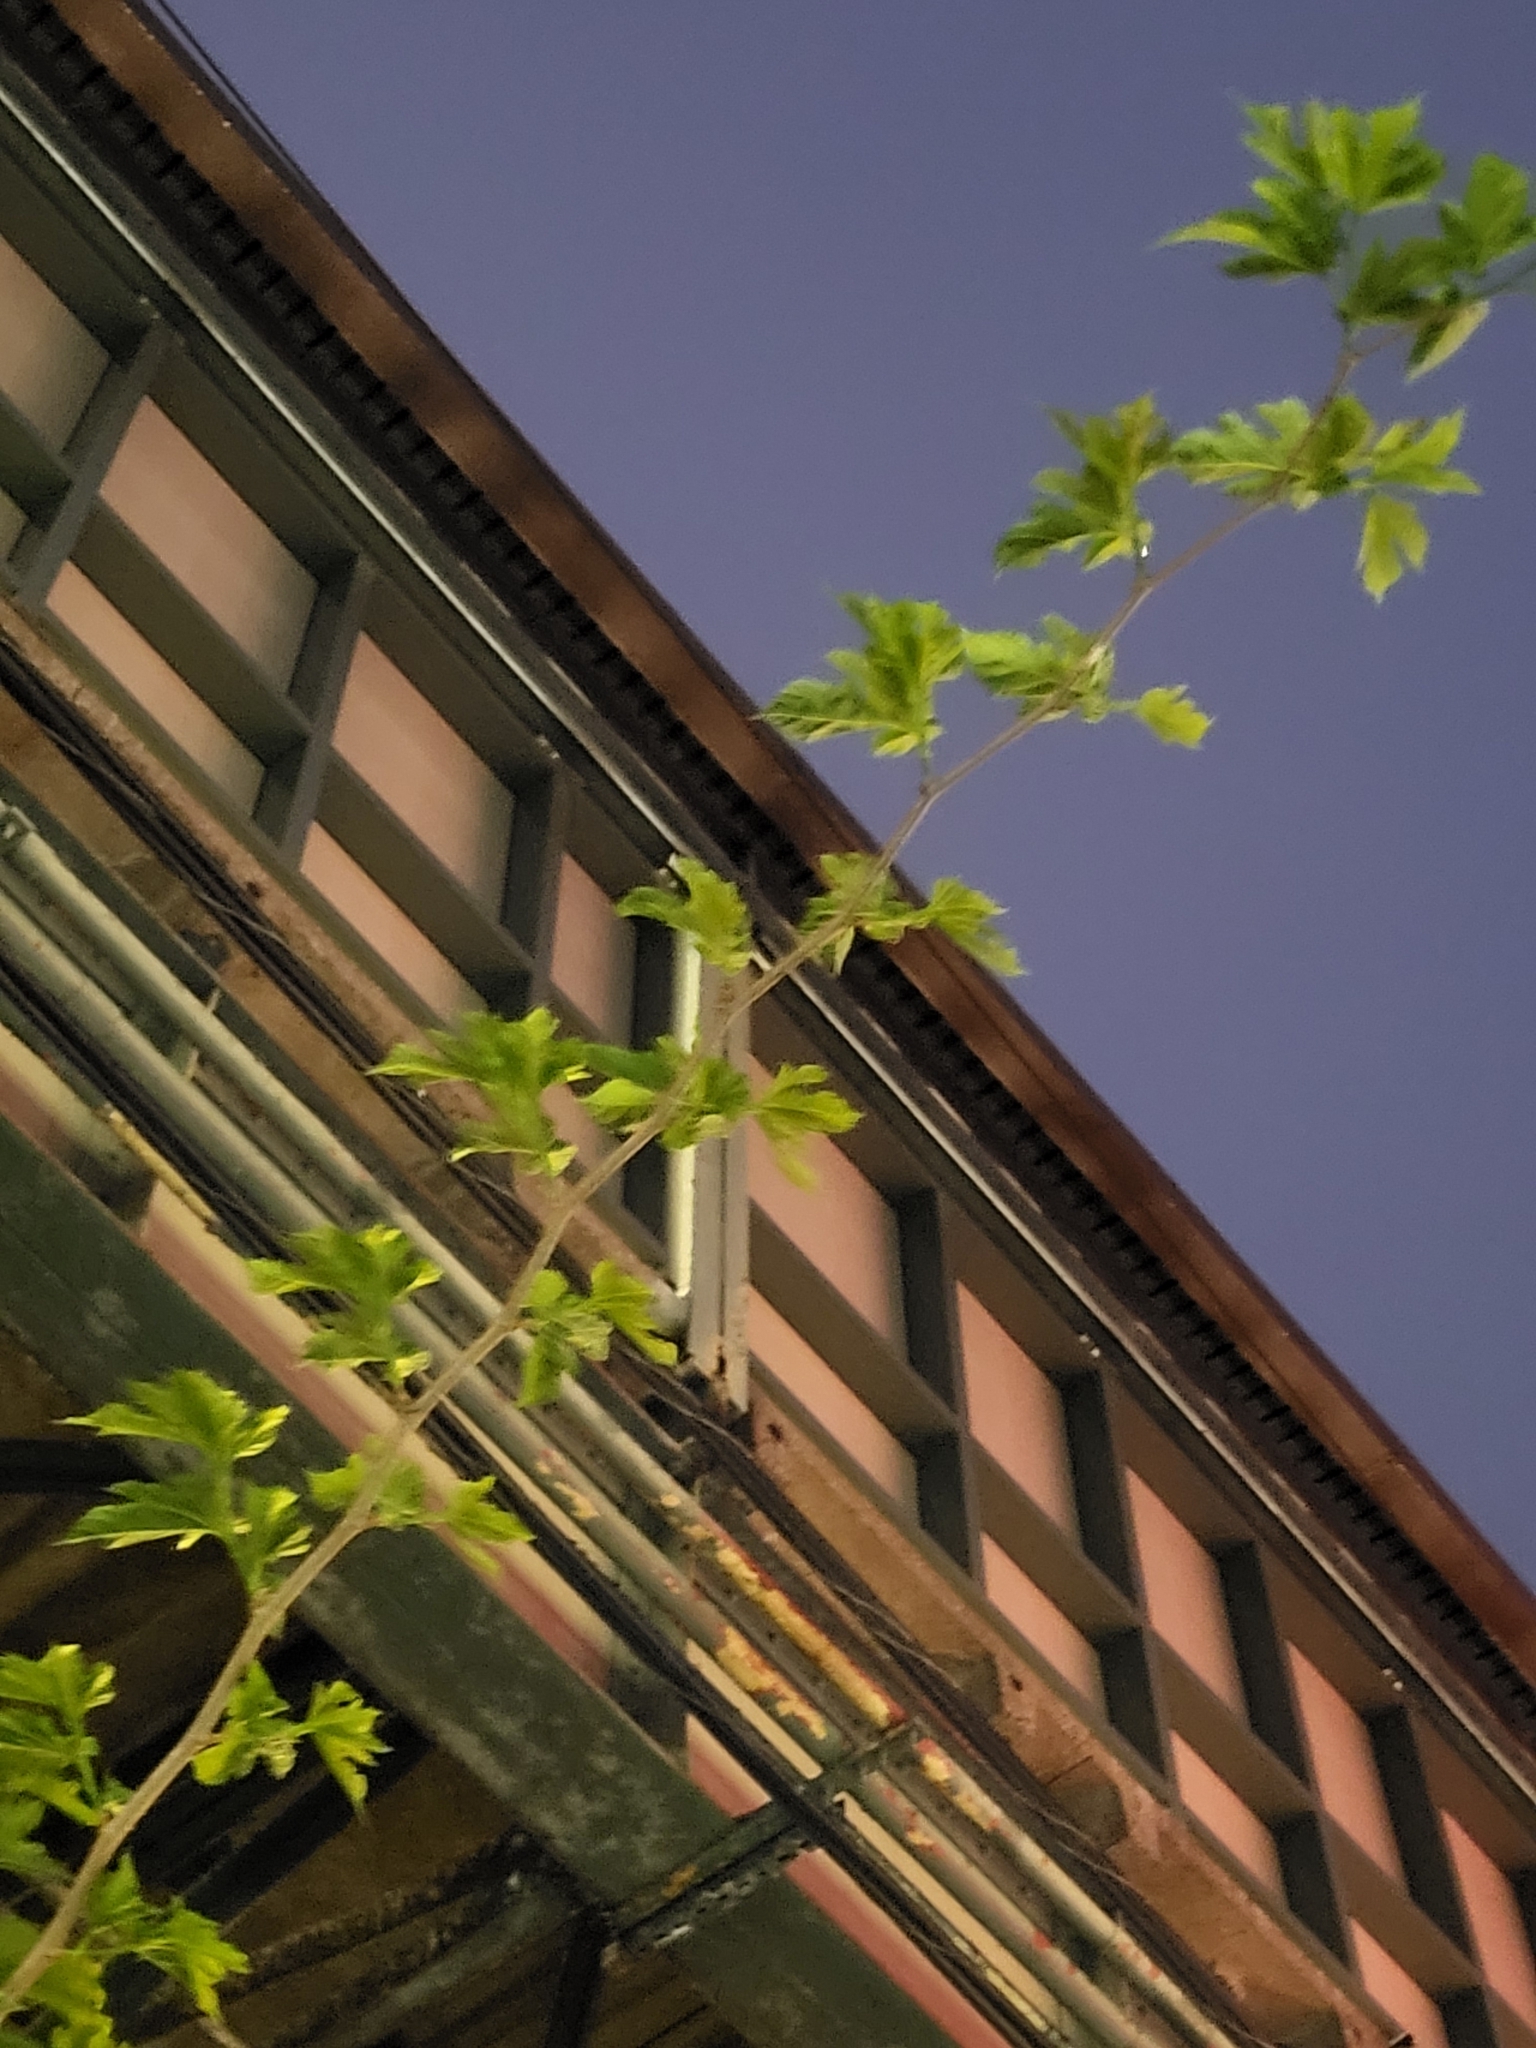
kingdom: Plantae
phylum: Tracheophyta
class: Magnoliopsida
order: Rosales
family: Moraceae
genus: Morus
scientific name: Morus indica
